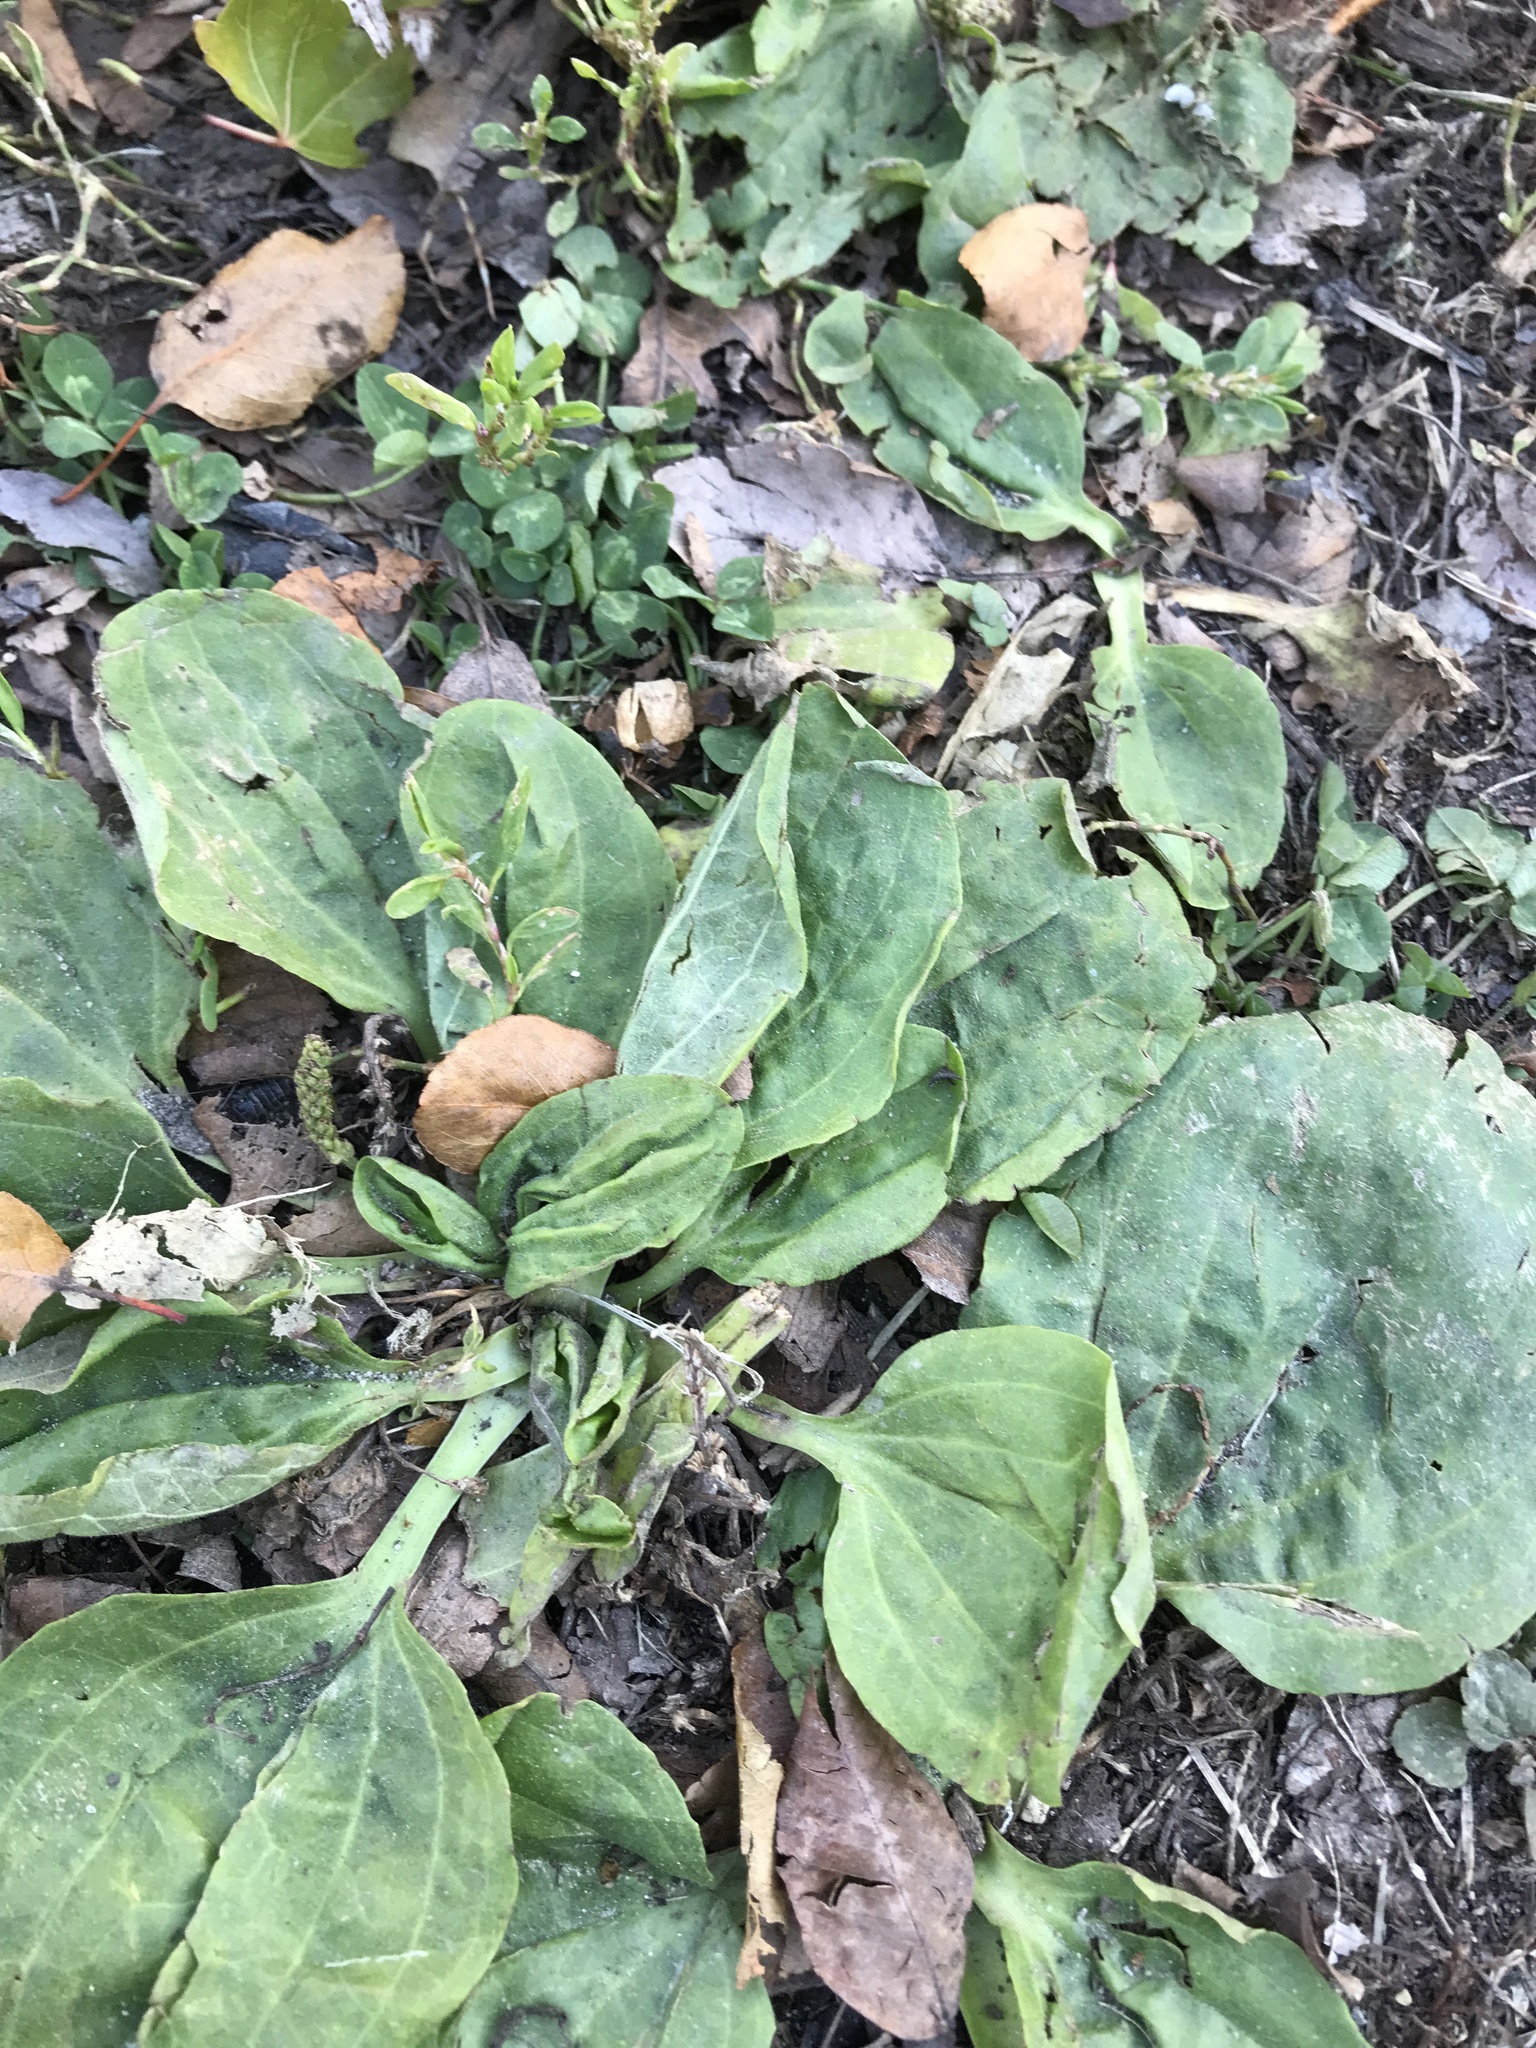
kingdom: Plantae
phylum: Tracheophyta
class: Magnoliopsida
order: Lamiales
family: Plantaginaceae
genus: Plantago
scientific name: Plantago major
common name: Common plantain
